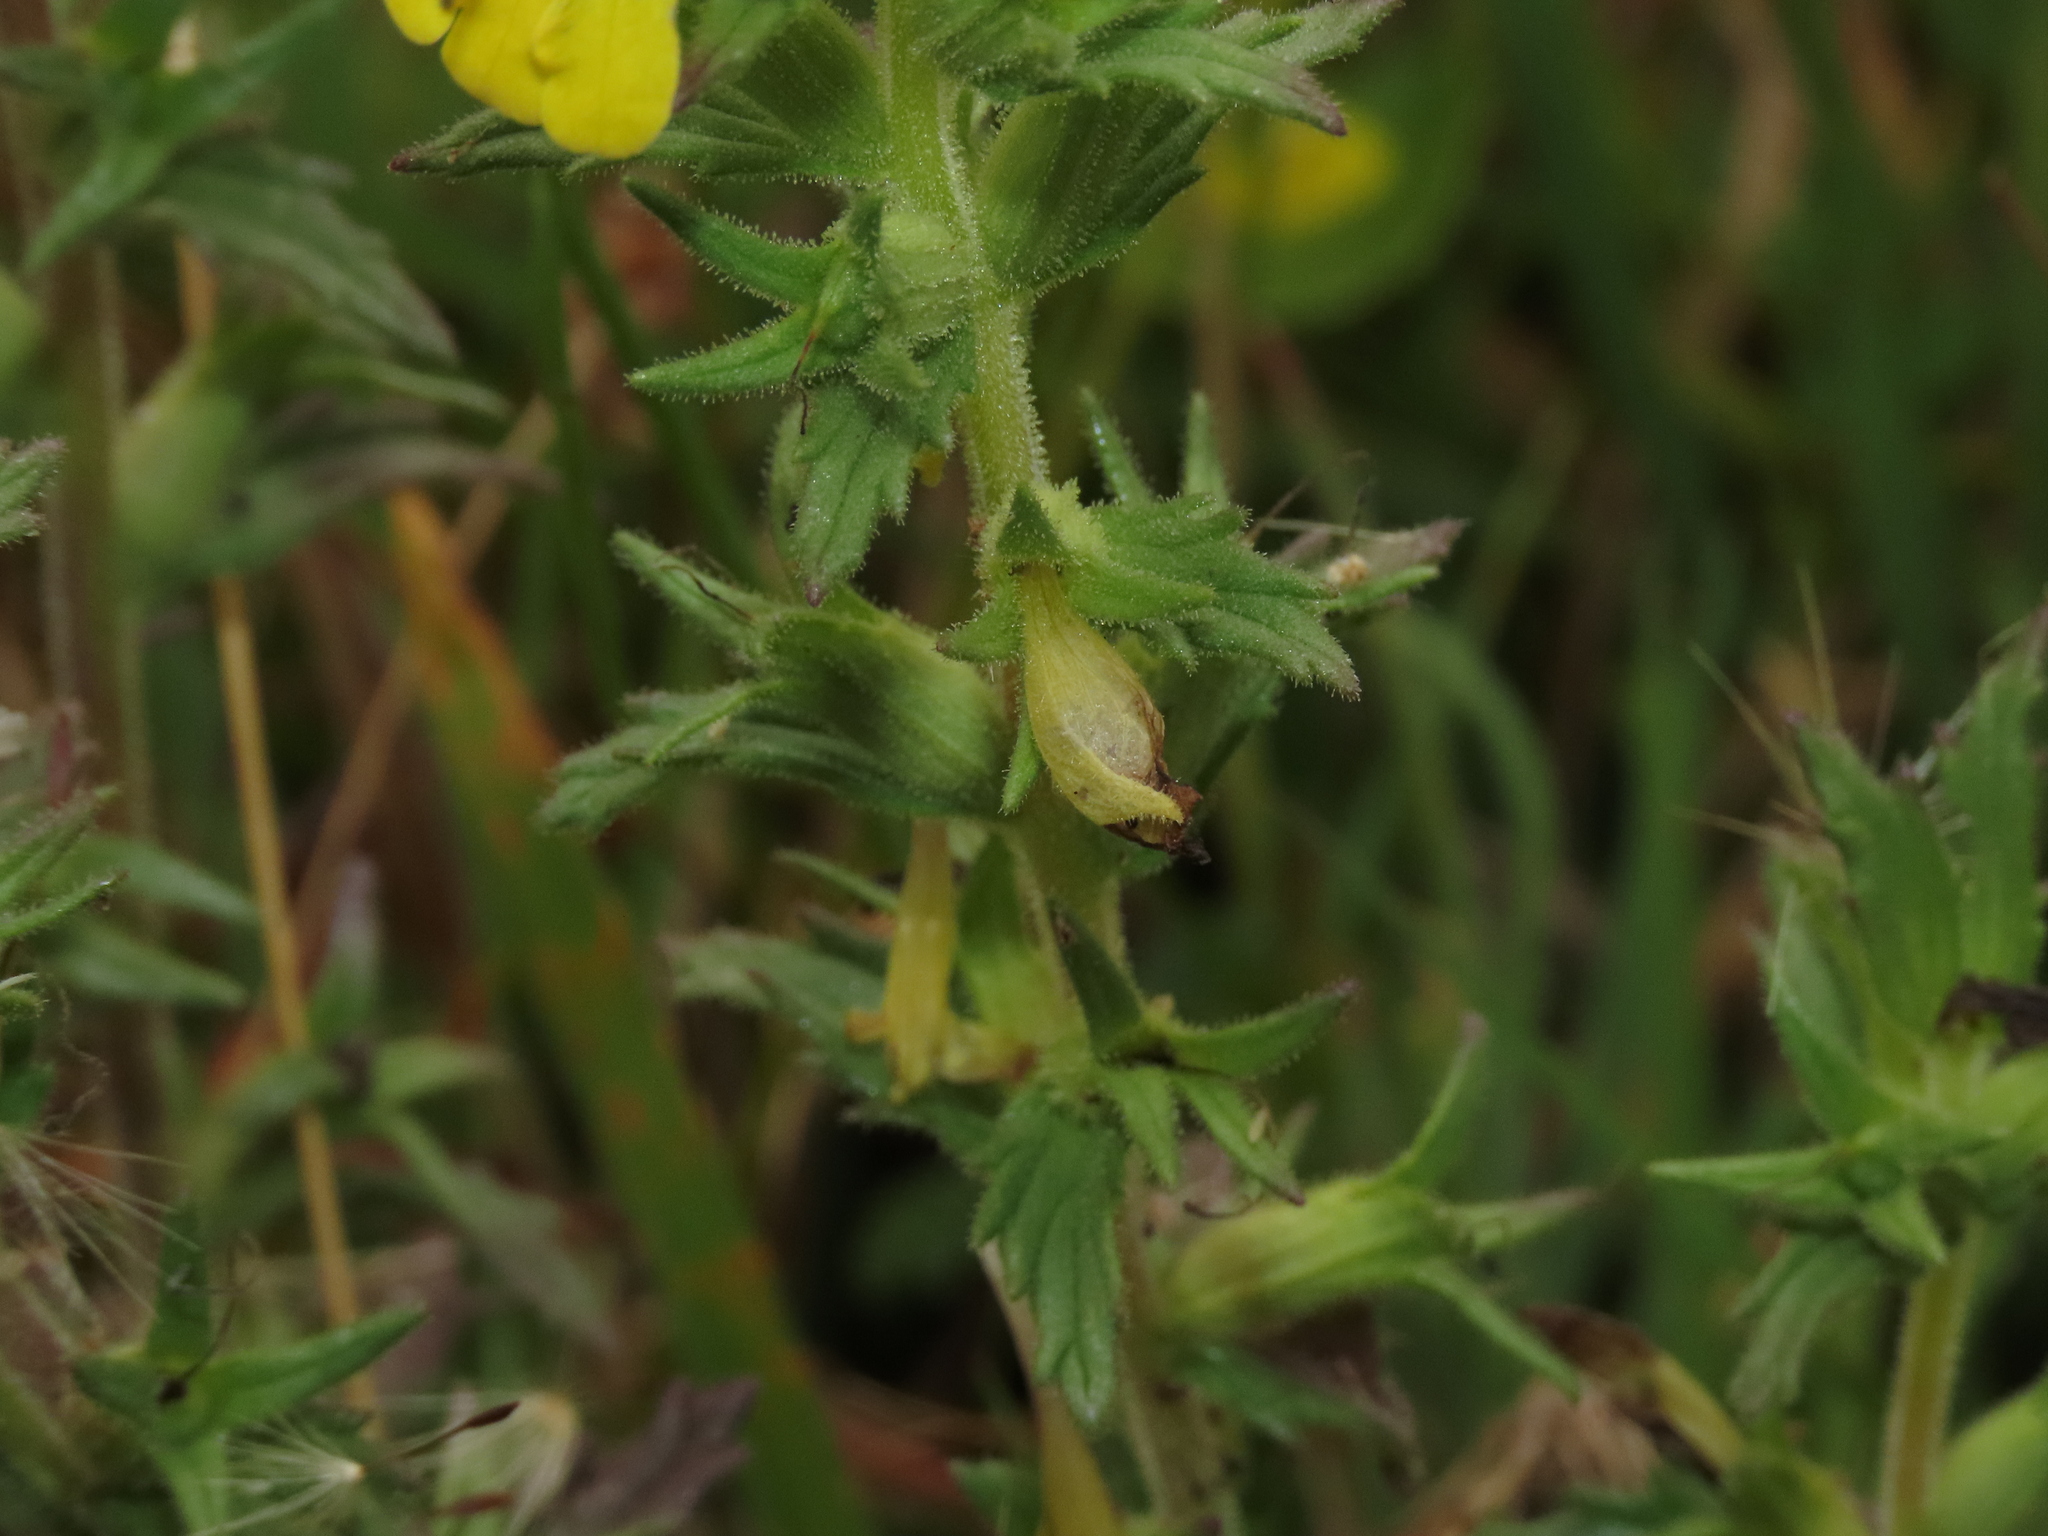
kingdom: Plantae
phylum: Tracheophyta
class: Magnoliopsida
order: Lamiales
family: Orobanchaceae
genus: Bellardia
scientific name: Bellardia viscosa
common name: Sticky parentucellia
